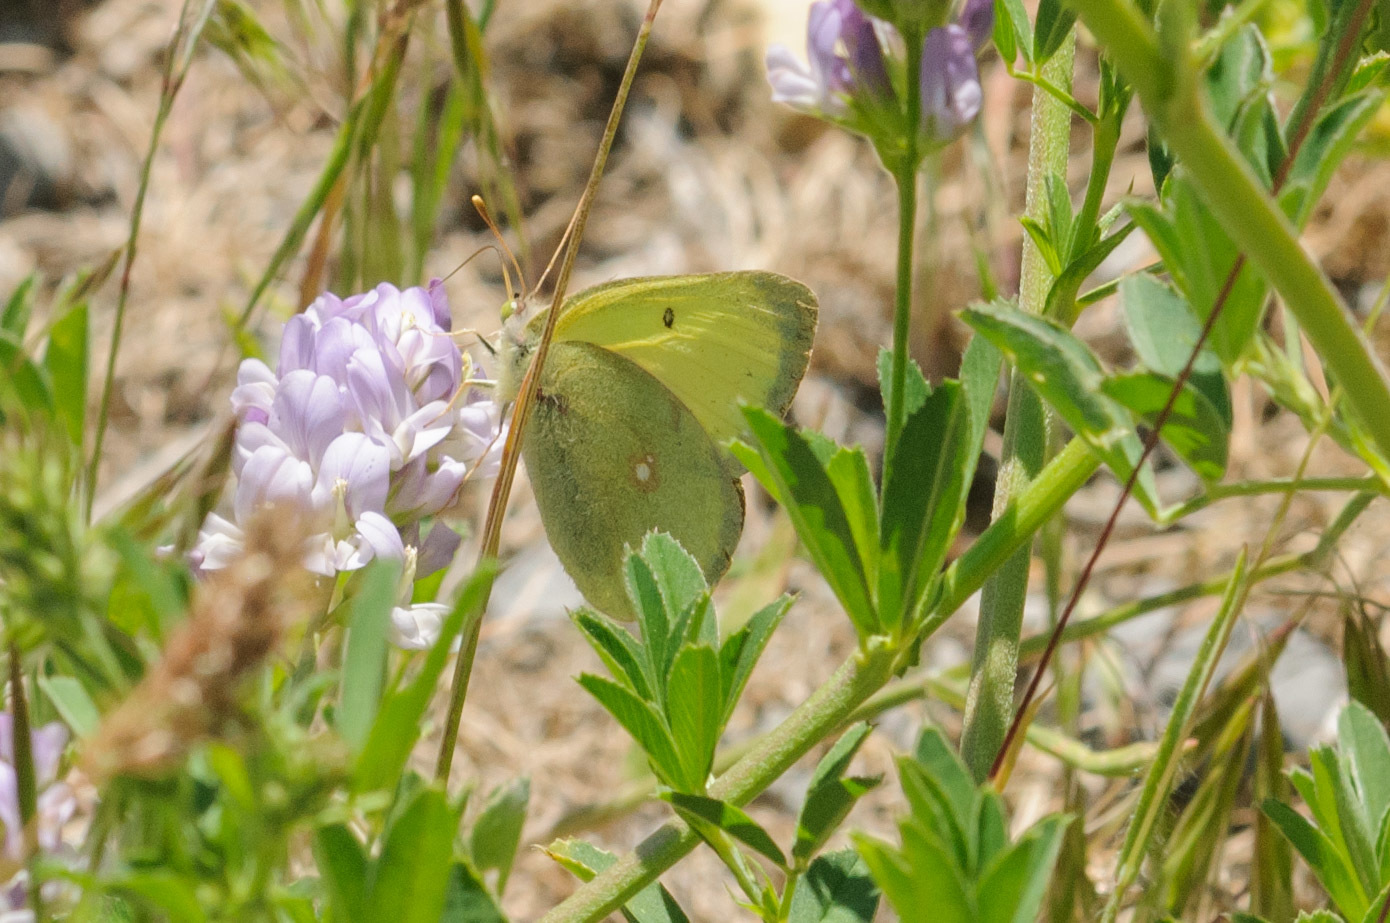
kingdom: Animalia
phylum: Arthropoda
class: Insecta
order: Lepidoptera
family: Pieridae
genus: Colias
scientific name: Colias occidentalis
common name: Western sulphur
